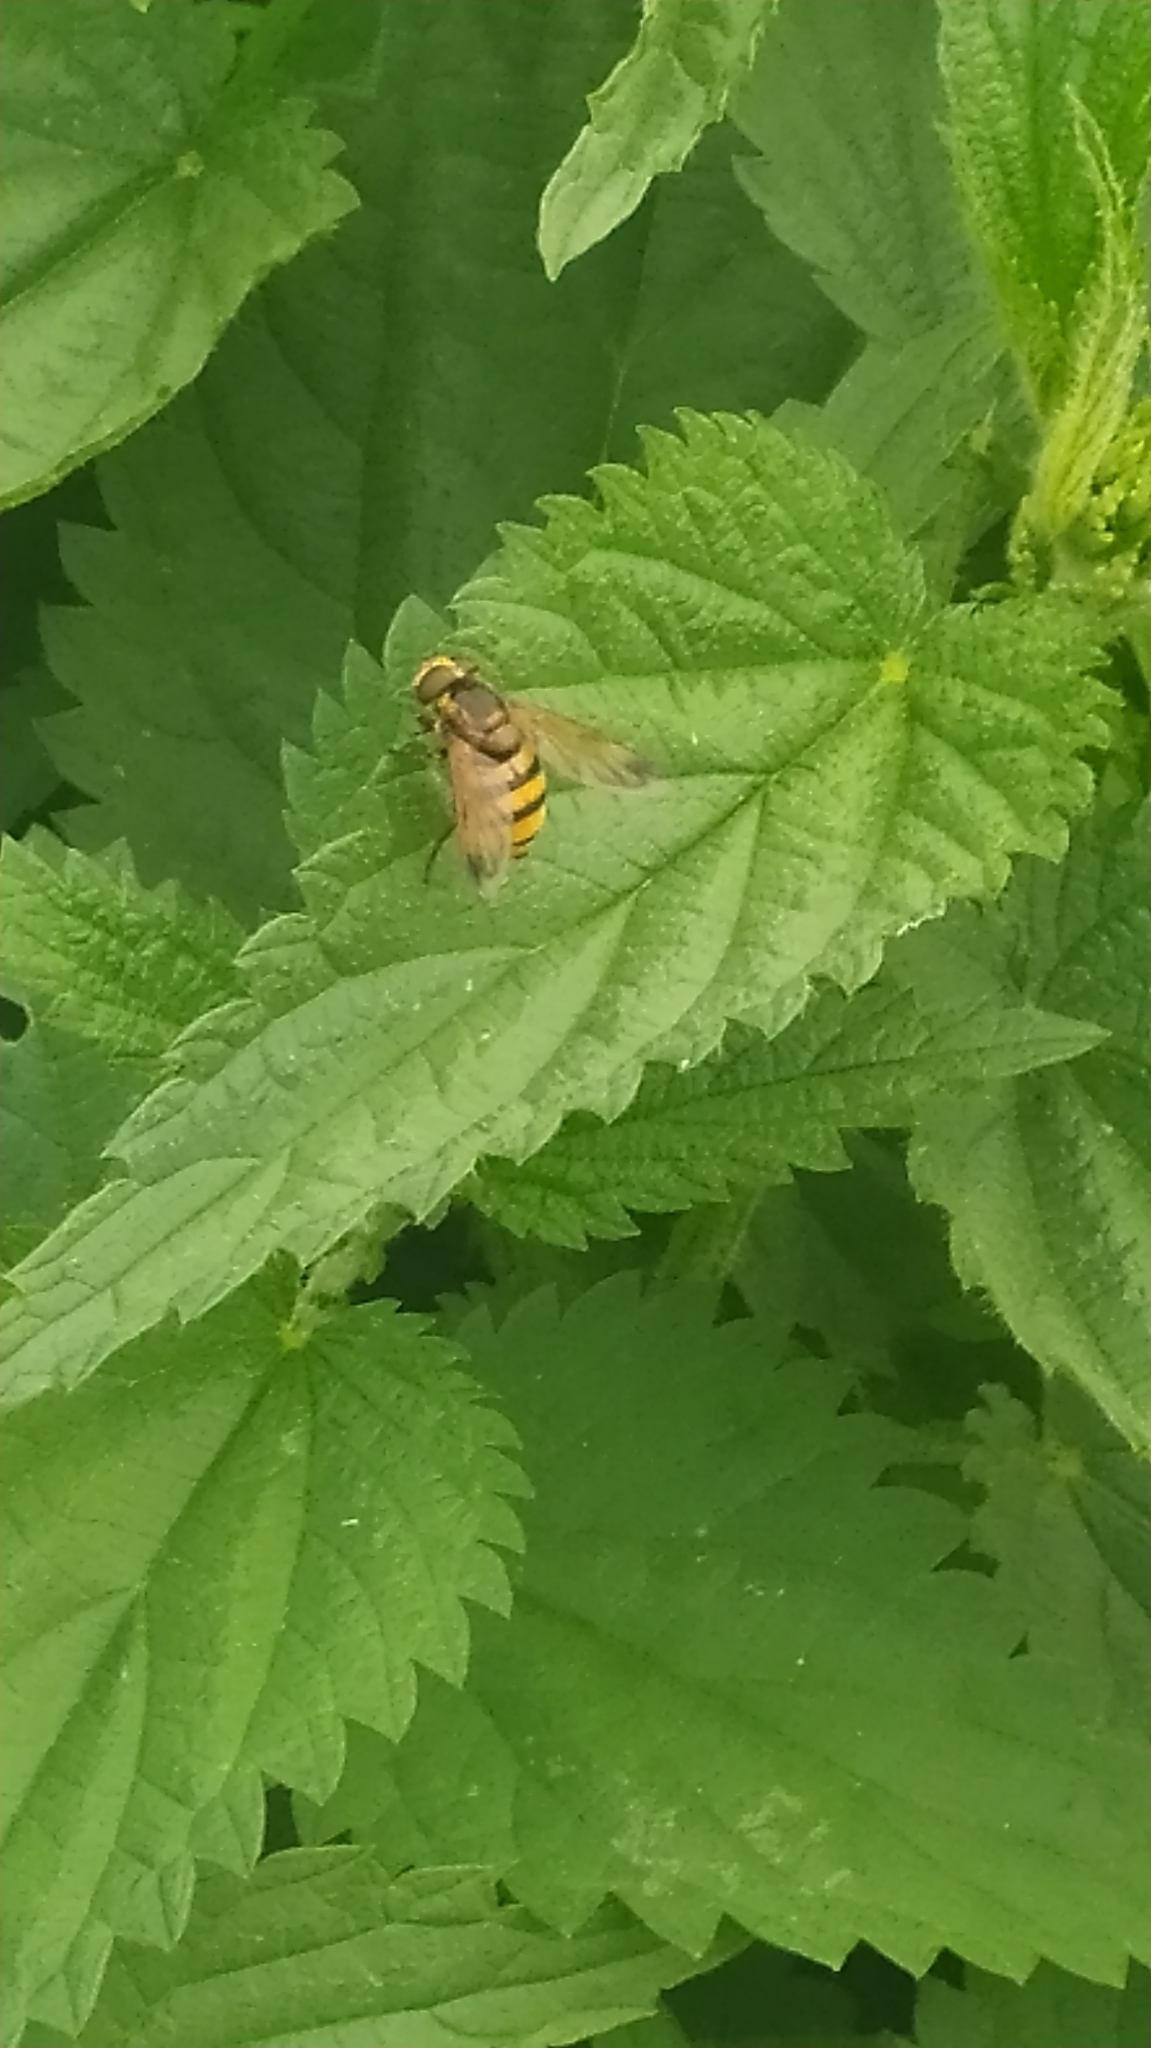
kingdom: Animalia
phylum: Arthropoda
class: Insecta
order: Diptera
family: Syrphidae
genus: Volucella
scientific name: Volucella inanis
